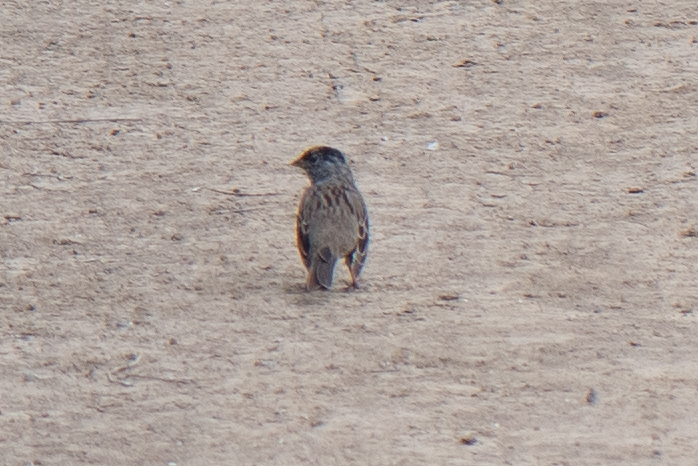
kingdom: Animalia
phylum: Chordata
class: Aves
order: Passeriformes
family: Passerellidae
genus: Zonotrichia
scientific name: Zonotrichia atricapilla
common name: Golden-crowned sparrow
